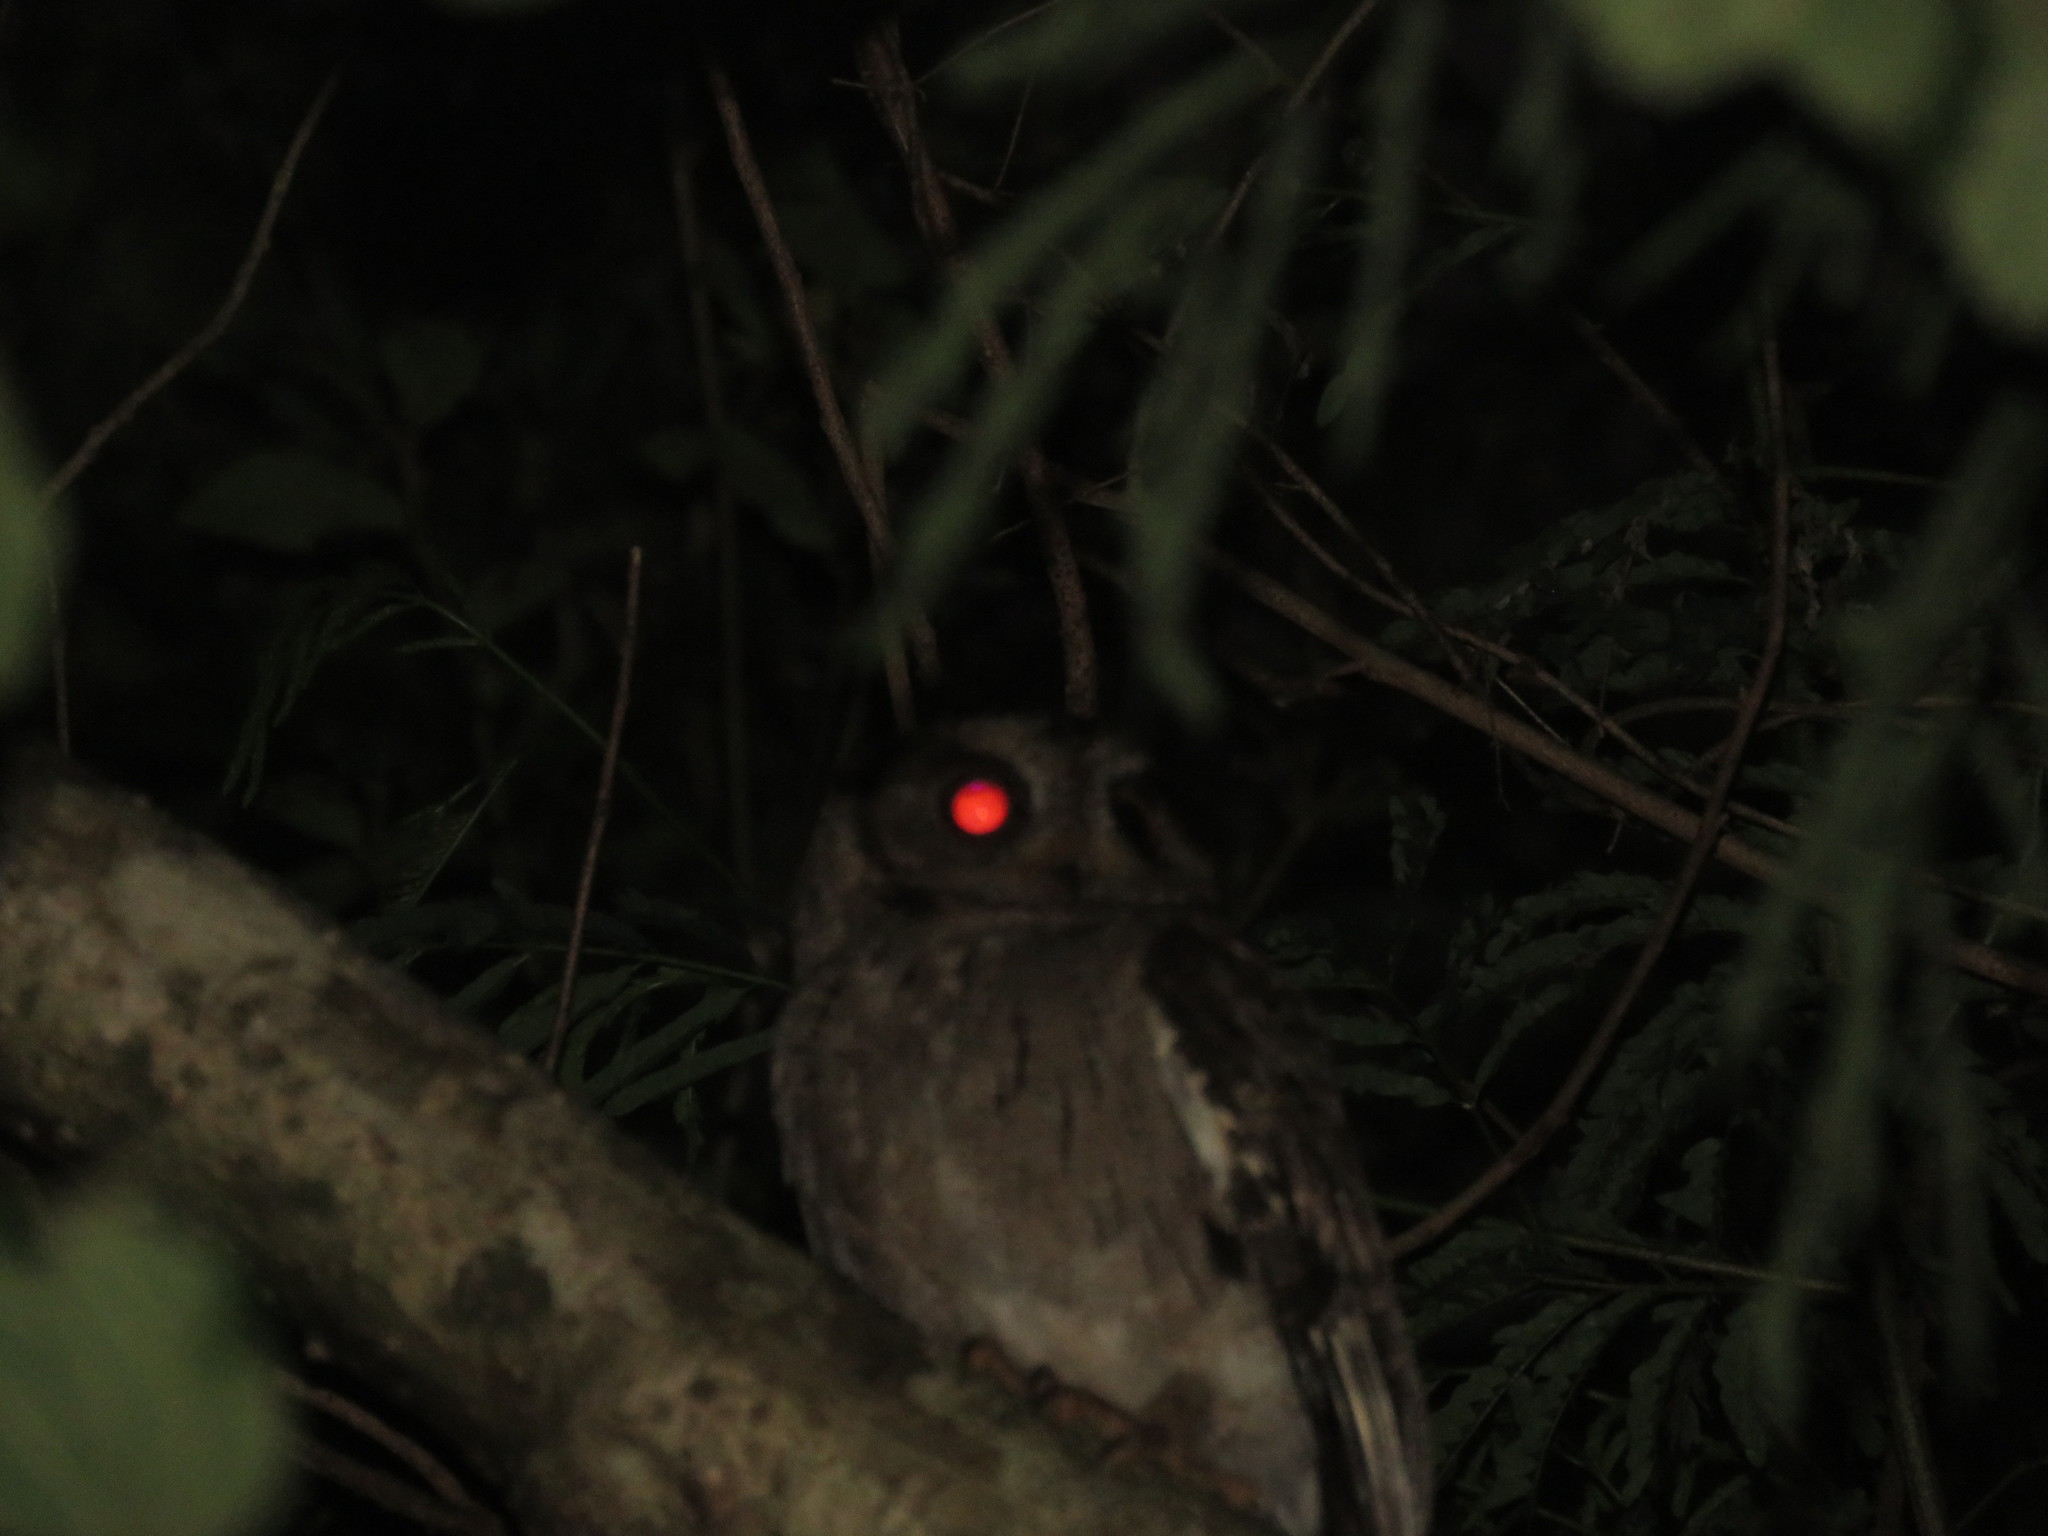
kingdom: Animalia
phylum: Chordata
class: Aves
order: Strigiformes
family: Strigidae
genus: Otus
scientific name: Otus bakkamoena
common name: Indian scops owl
